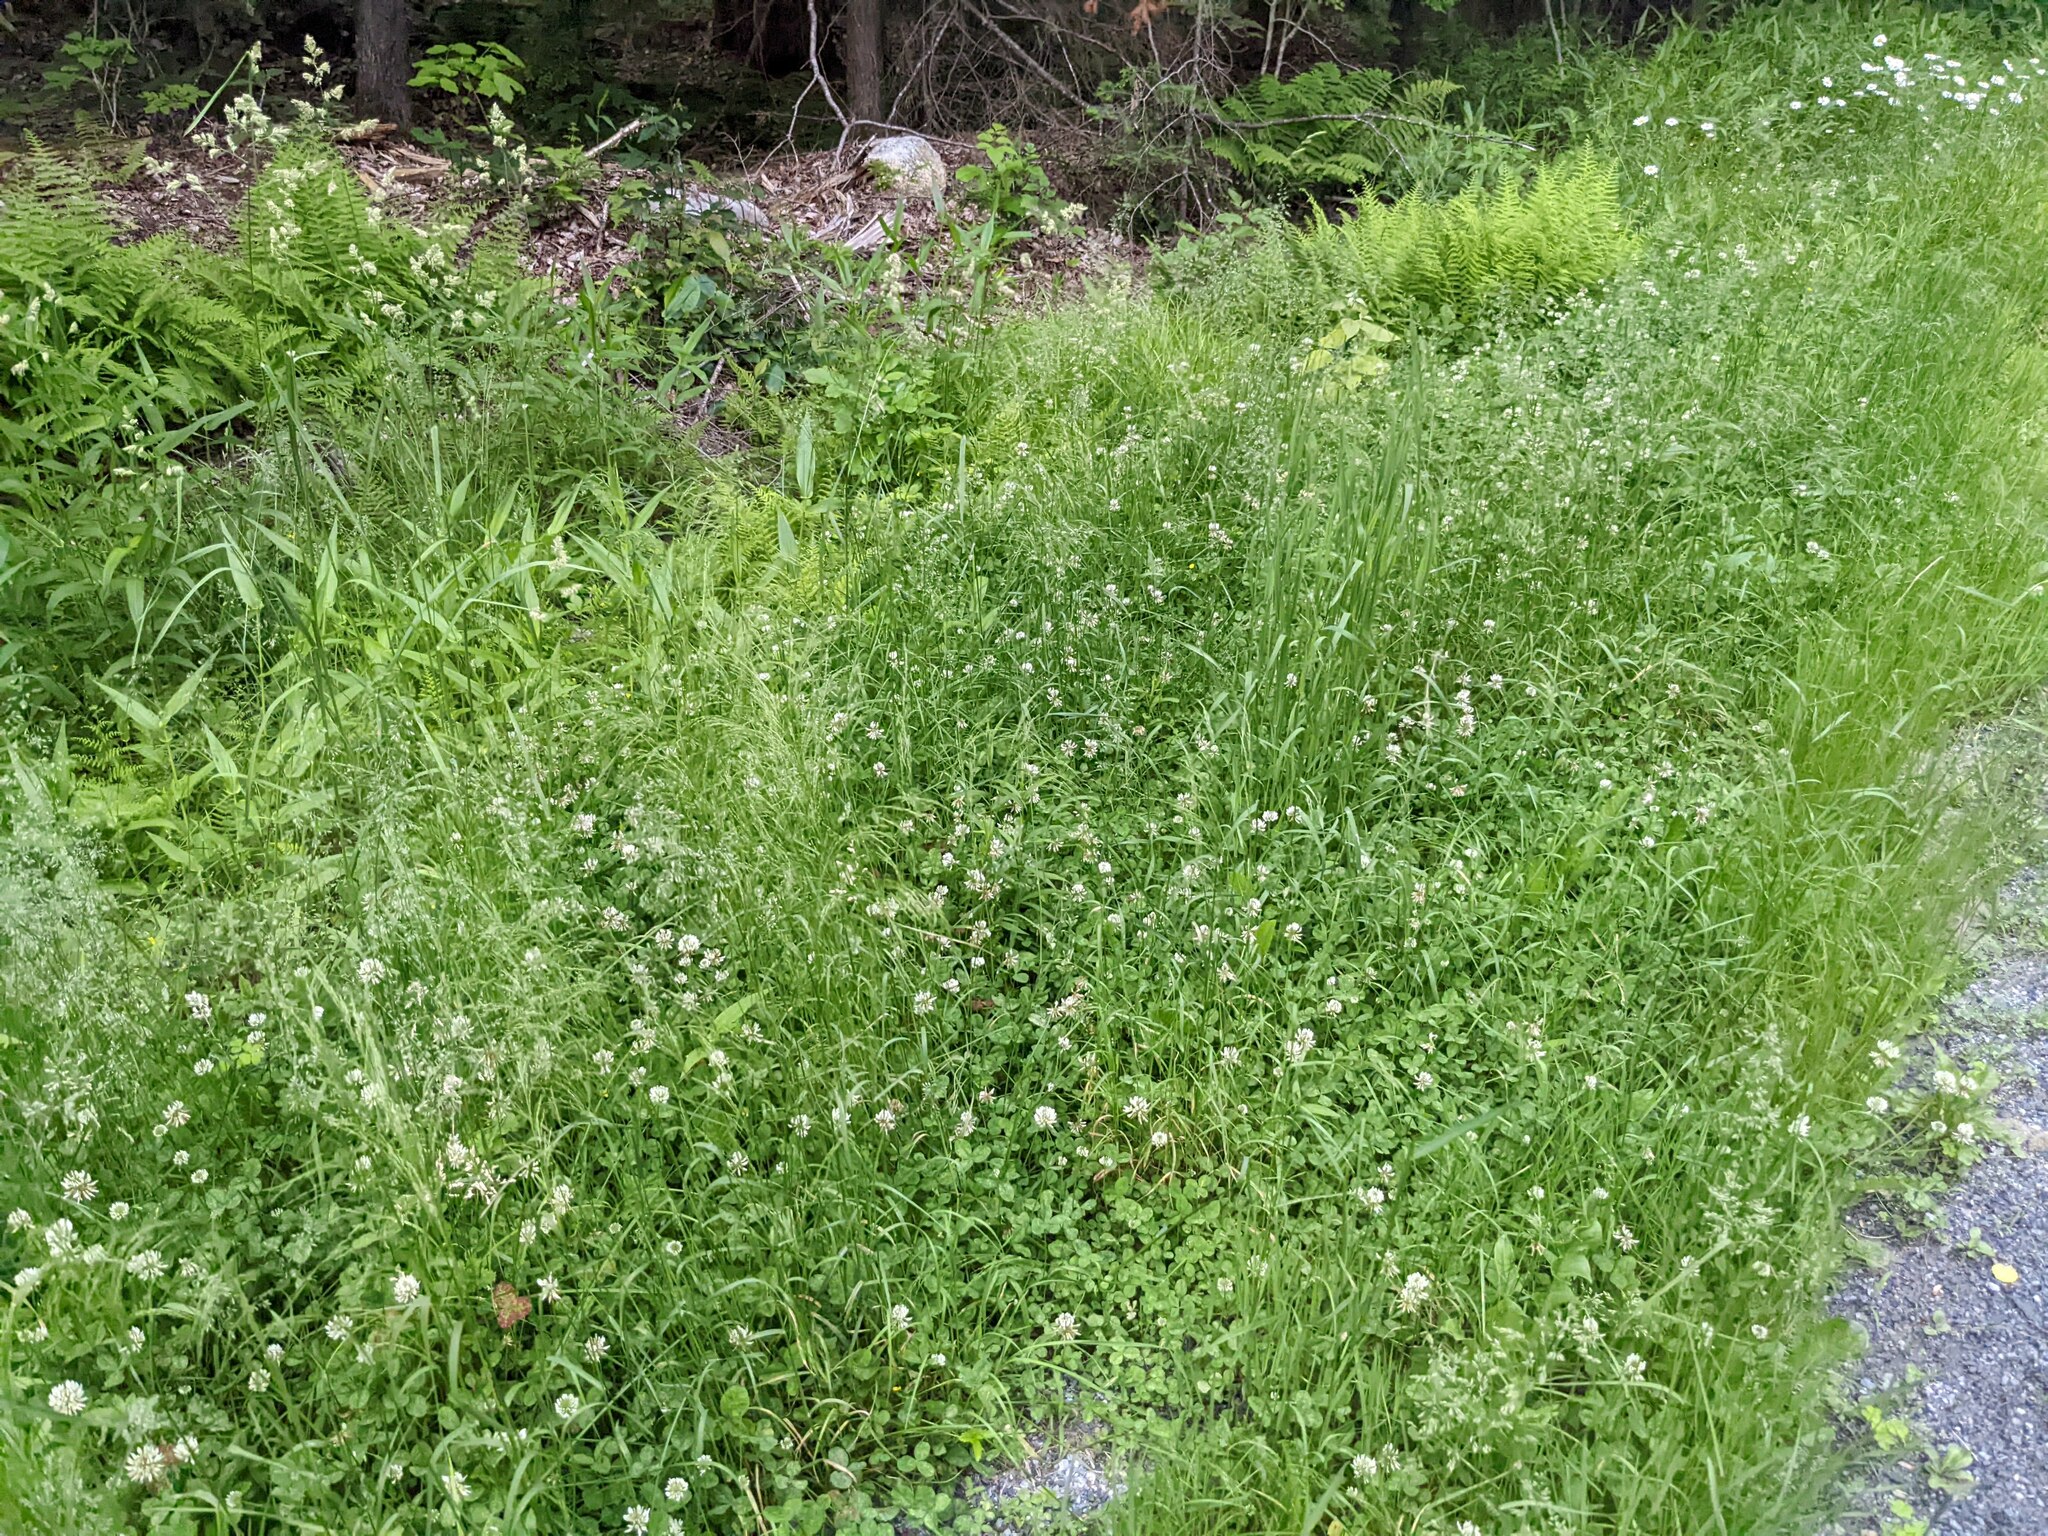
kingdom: Plantae
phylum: Tracheophyta
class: Magnoliopsida
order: Fabales
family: Fabaceae
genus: Trifolium
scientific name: Trifolium repens
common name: White clover
